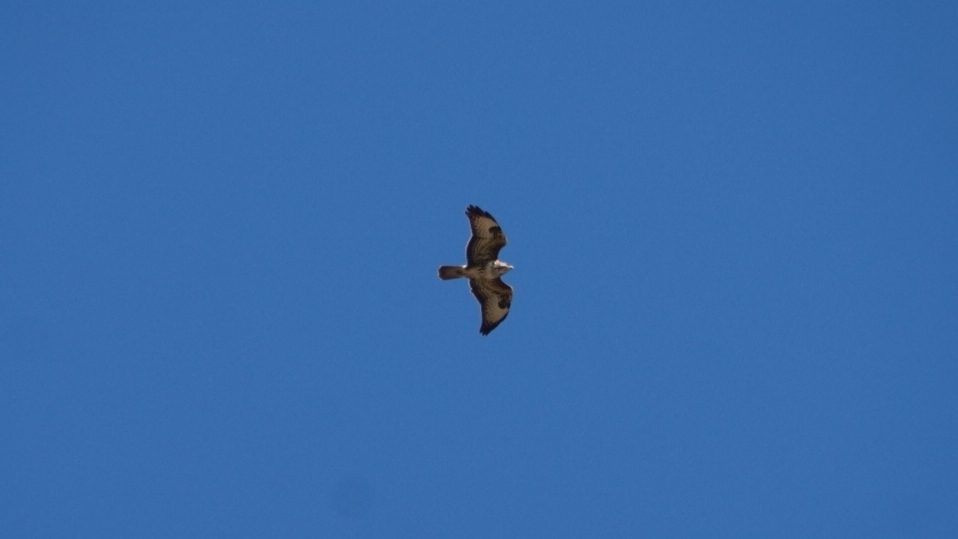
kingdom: Animalia
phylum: Chordata
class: Aves
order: Accipitriformes
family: Accipitridae
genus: Buteo
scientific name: Buteo buteo
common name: Common buzzard
